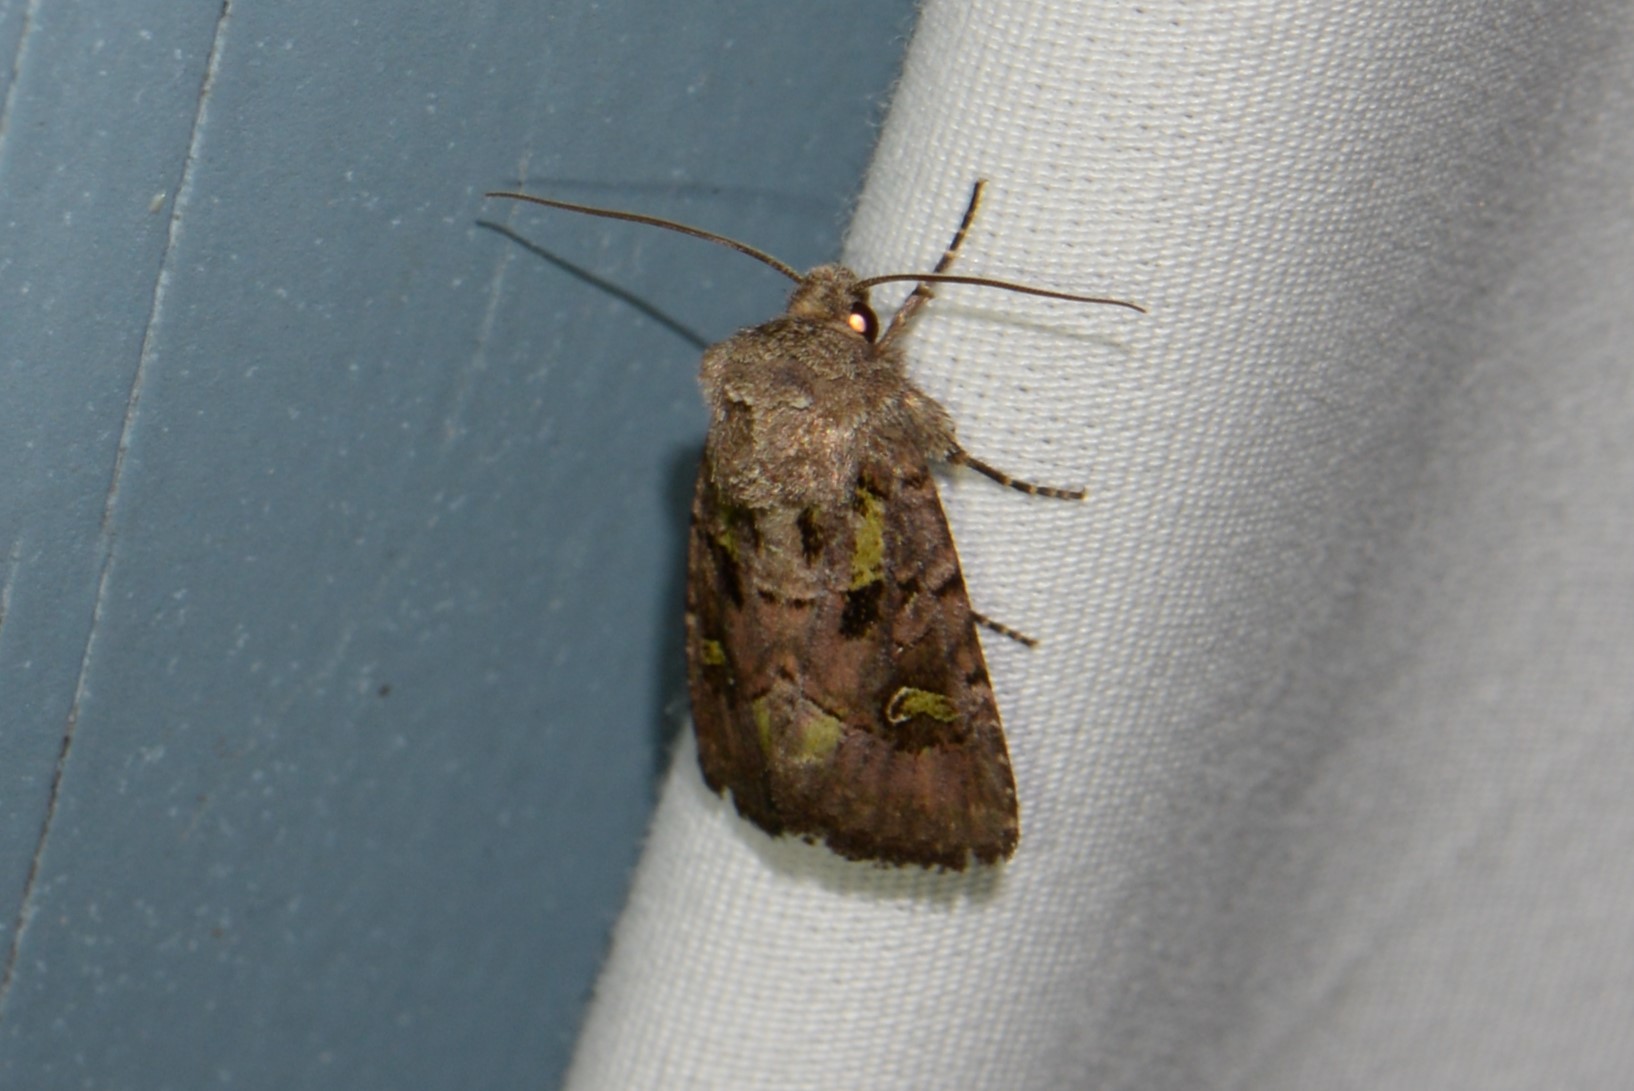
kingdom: Animalia
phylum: Arthropoda
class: Insecta
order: Lepidoptera
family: Noctuidae
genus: Lacinipolia
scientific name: Lacinipolia renigera
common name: Kidney-spotted minor
